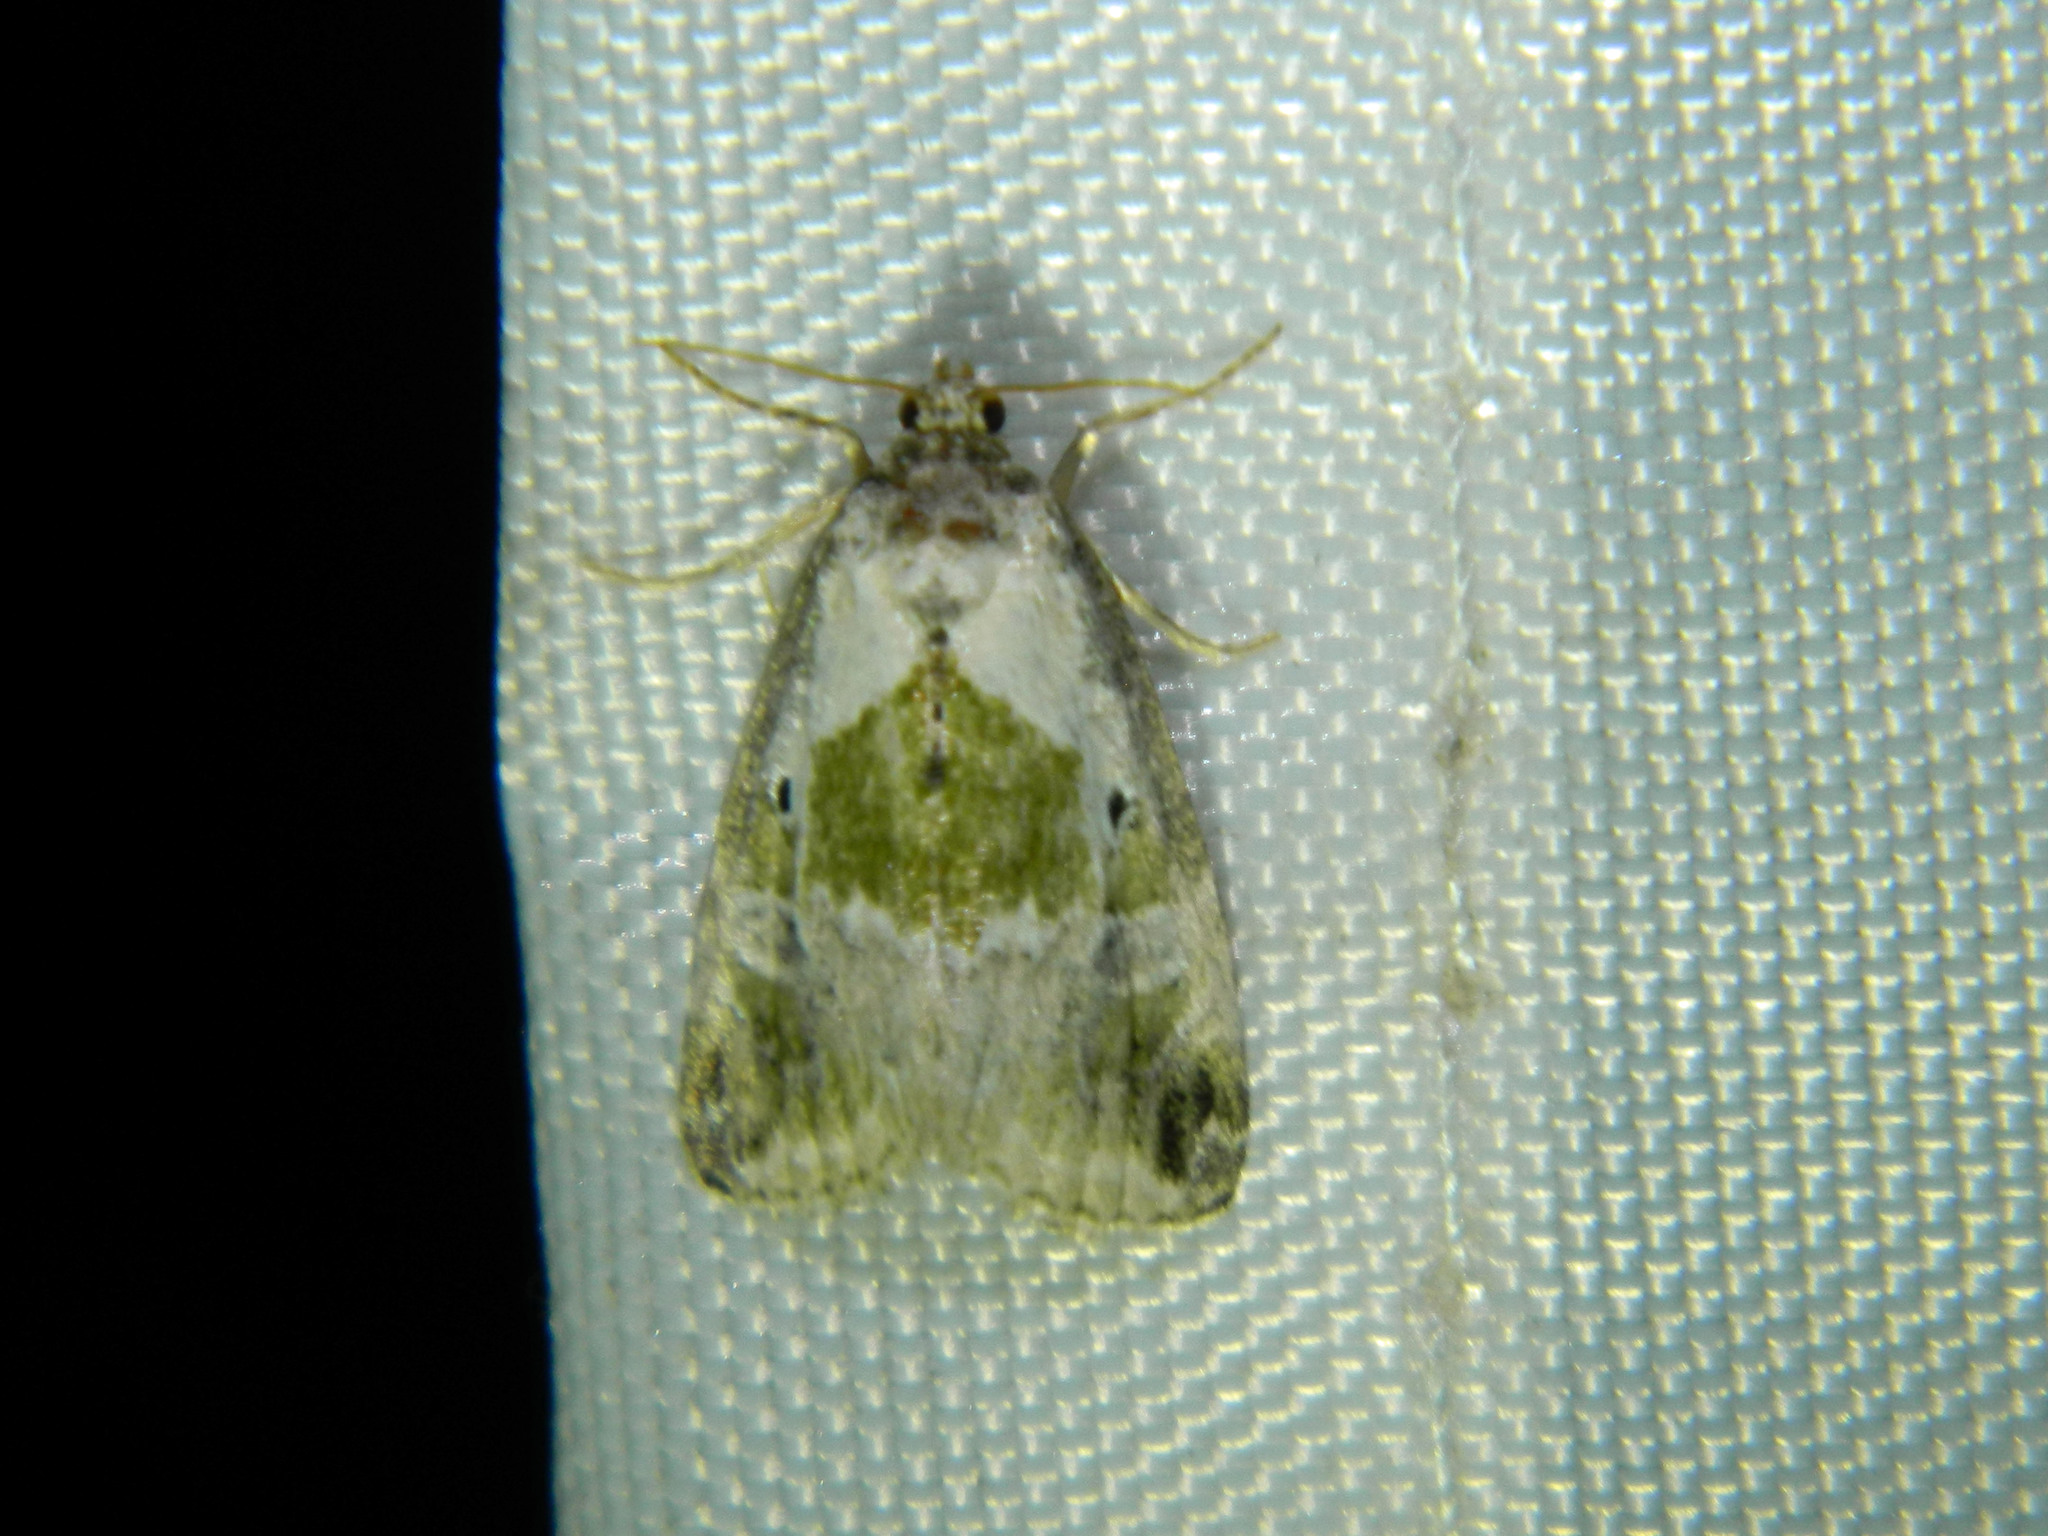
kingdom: Animalia
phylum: Arthropoda
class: Insecta
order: Lepidoptera
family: Noctuidae
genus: Maliattha
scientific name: Maliattha synochitis
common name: Black-dotted glyph
